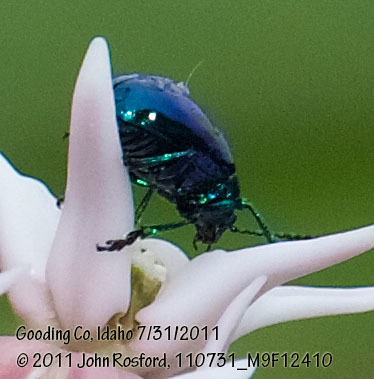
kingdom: Animalia
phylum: Arthropoda
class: Insecta
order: Coleoptera
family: Chrysomelidae
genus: Chrysochus
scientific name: Chrysochus cobaltinus
